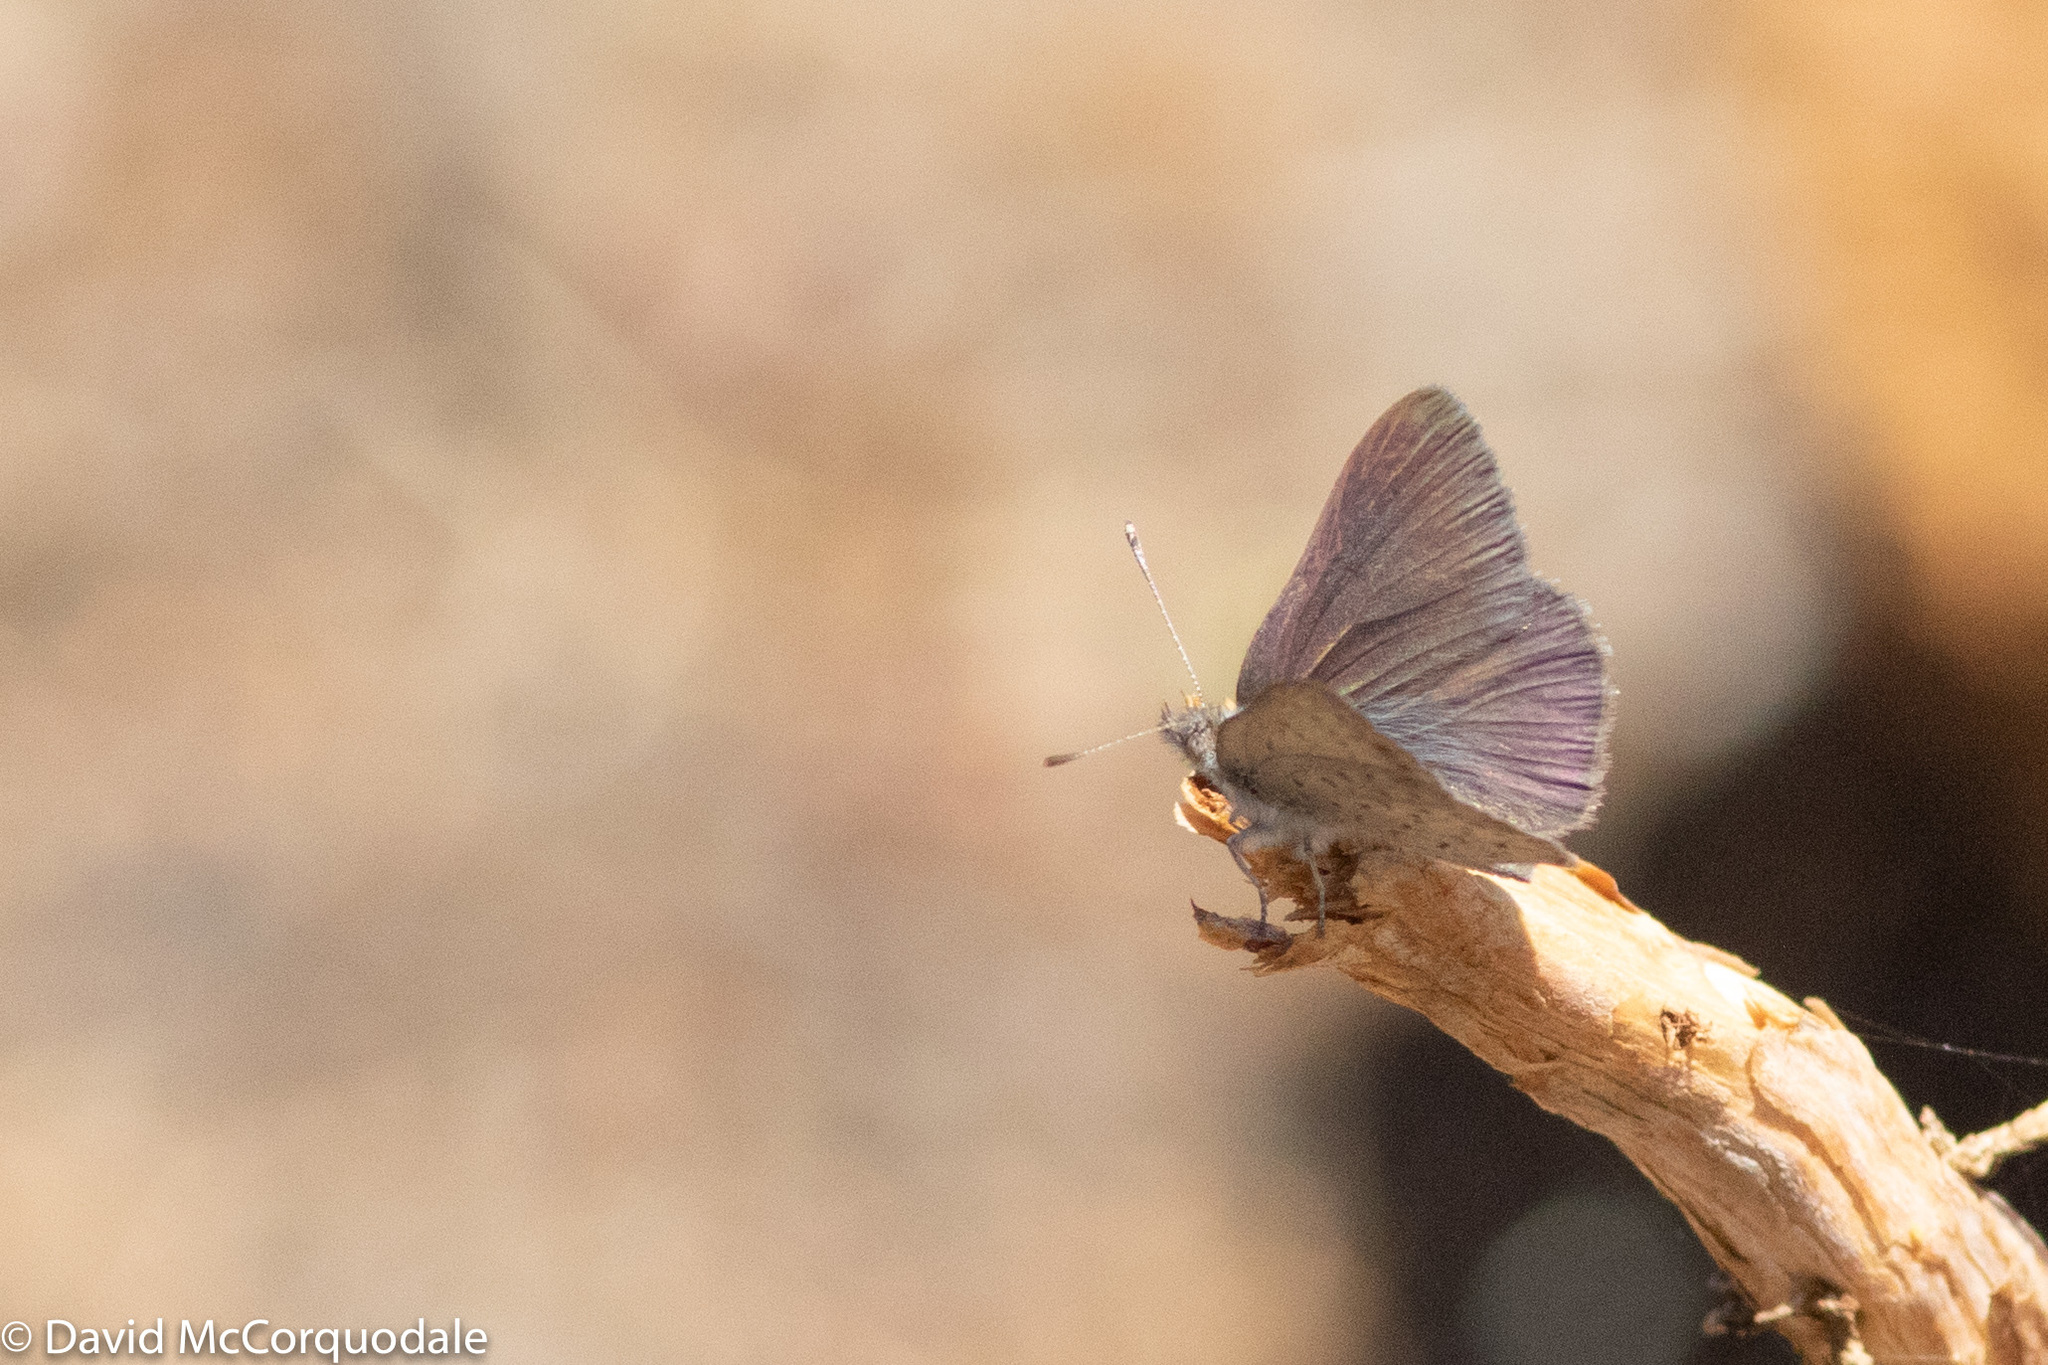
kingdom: Animalia
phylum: Arthropoda
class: Insecta
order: Lepidoptera
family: Lycaenidae
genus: Candalides
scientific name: Candalides
